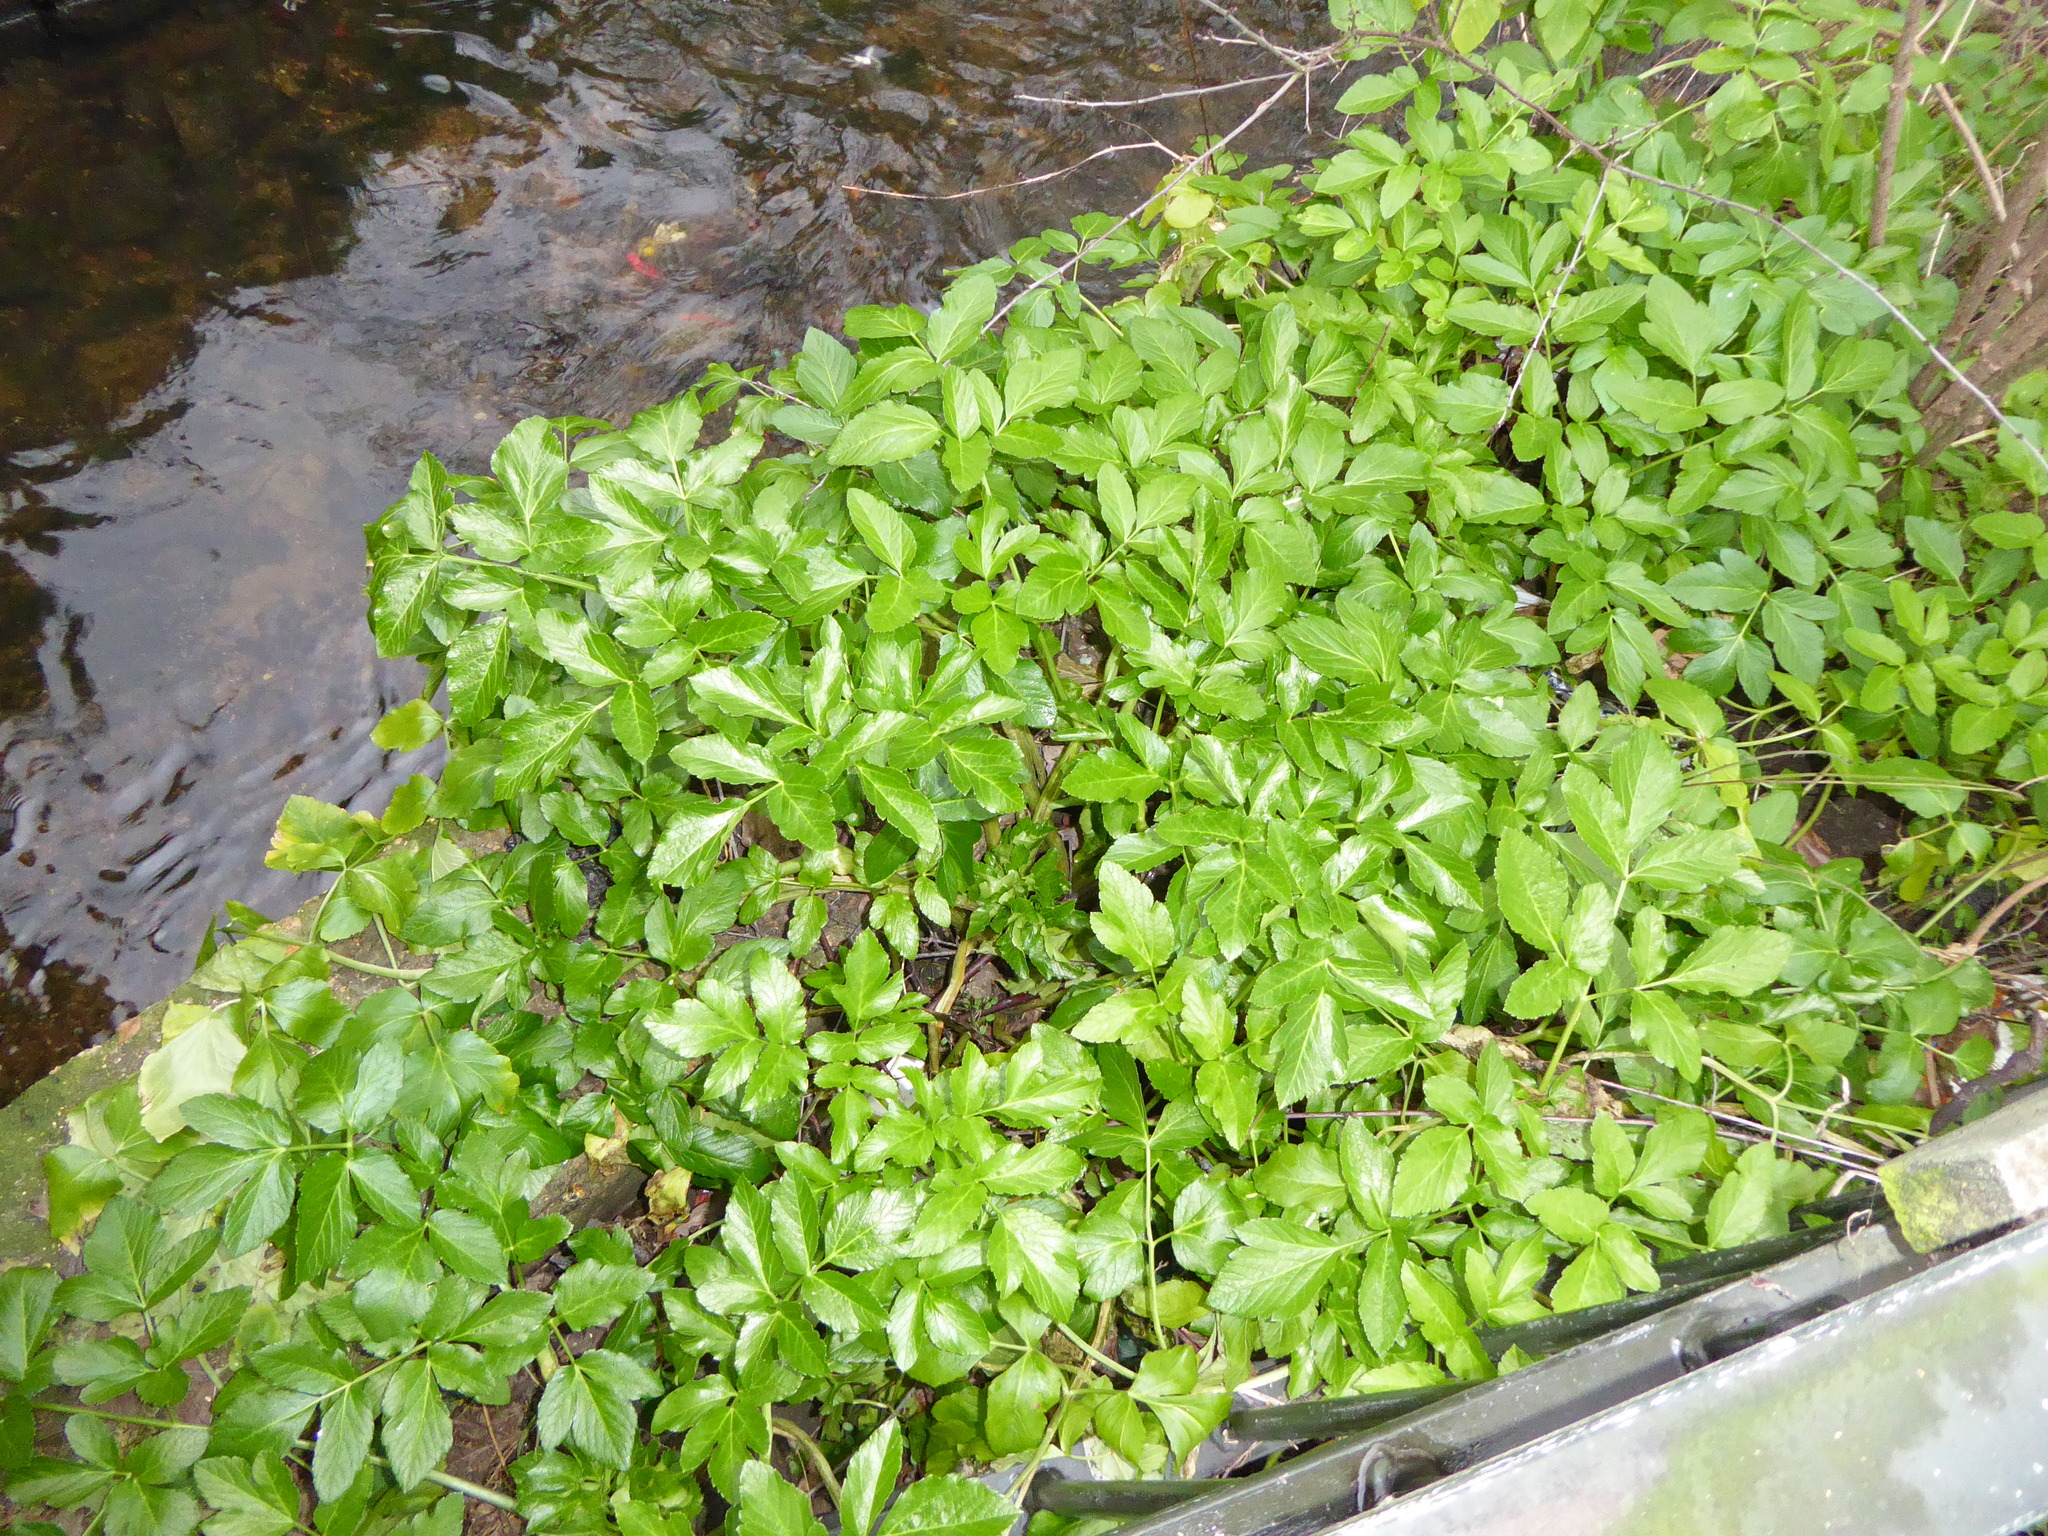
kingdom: Plantae
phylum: Tracheophyta
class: Magnoliopsida
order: Apiales
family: Apiaceae
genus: Smyrnium
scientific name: Smyrnium olusatrum
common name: Alexanders
